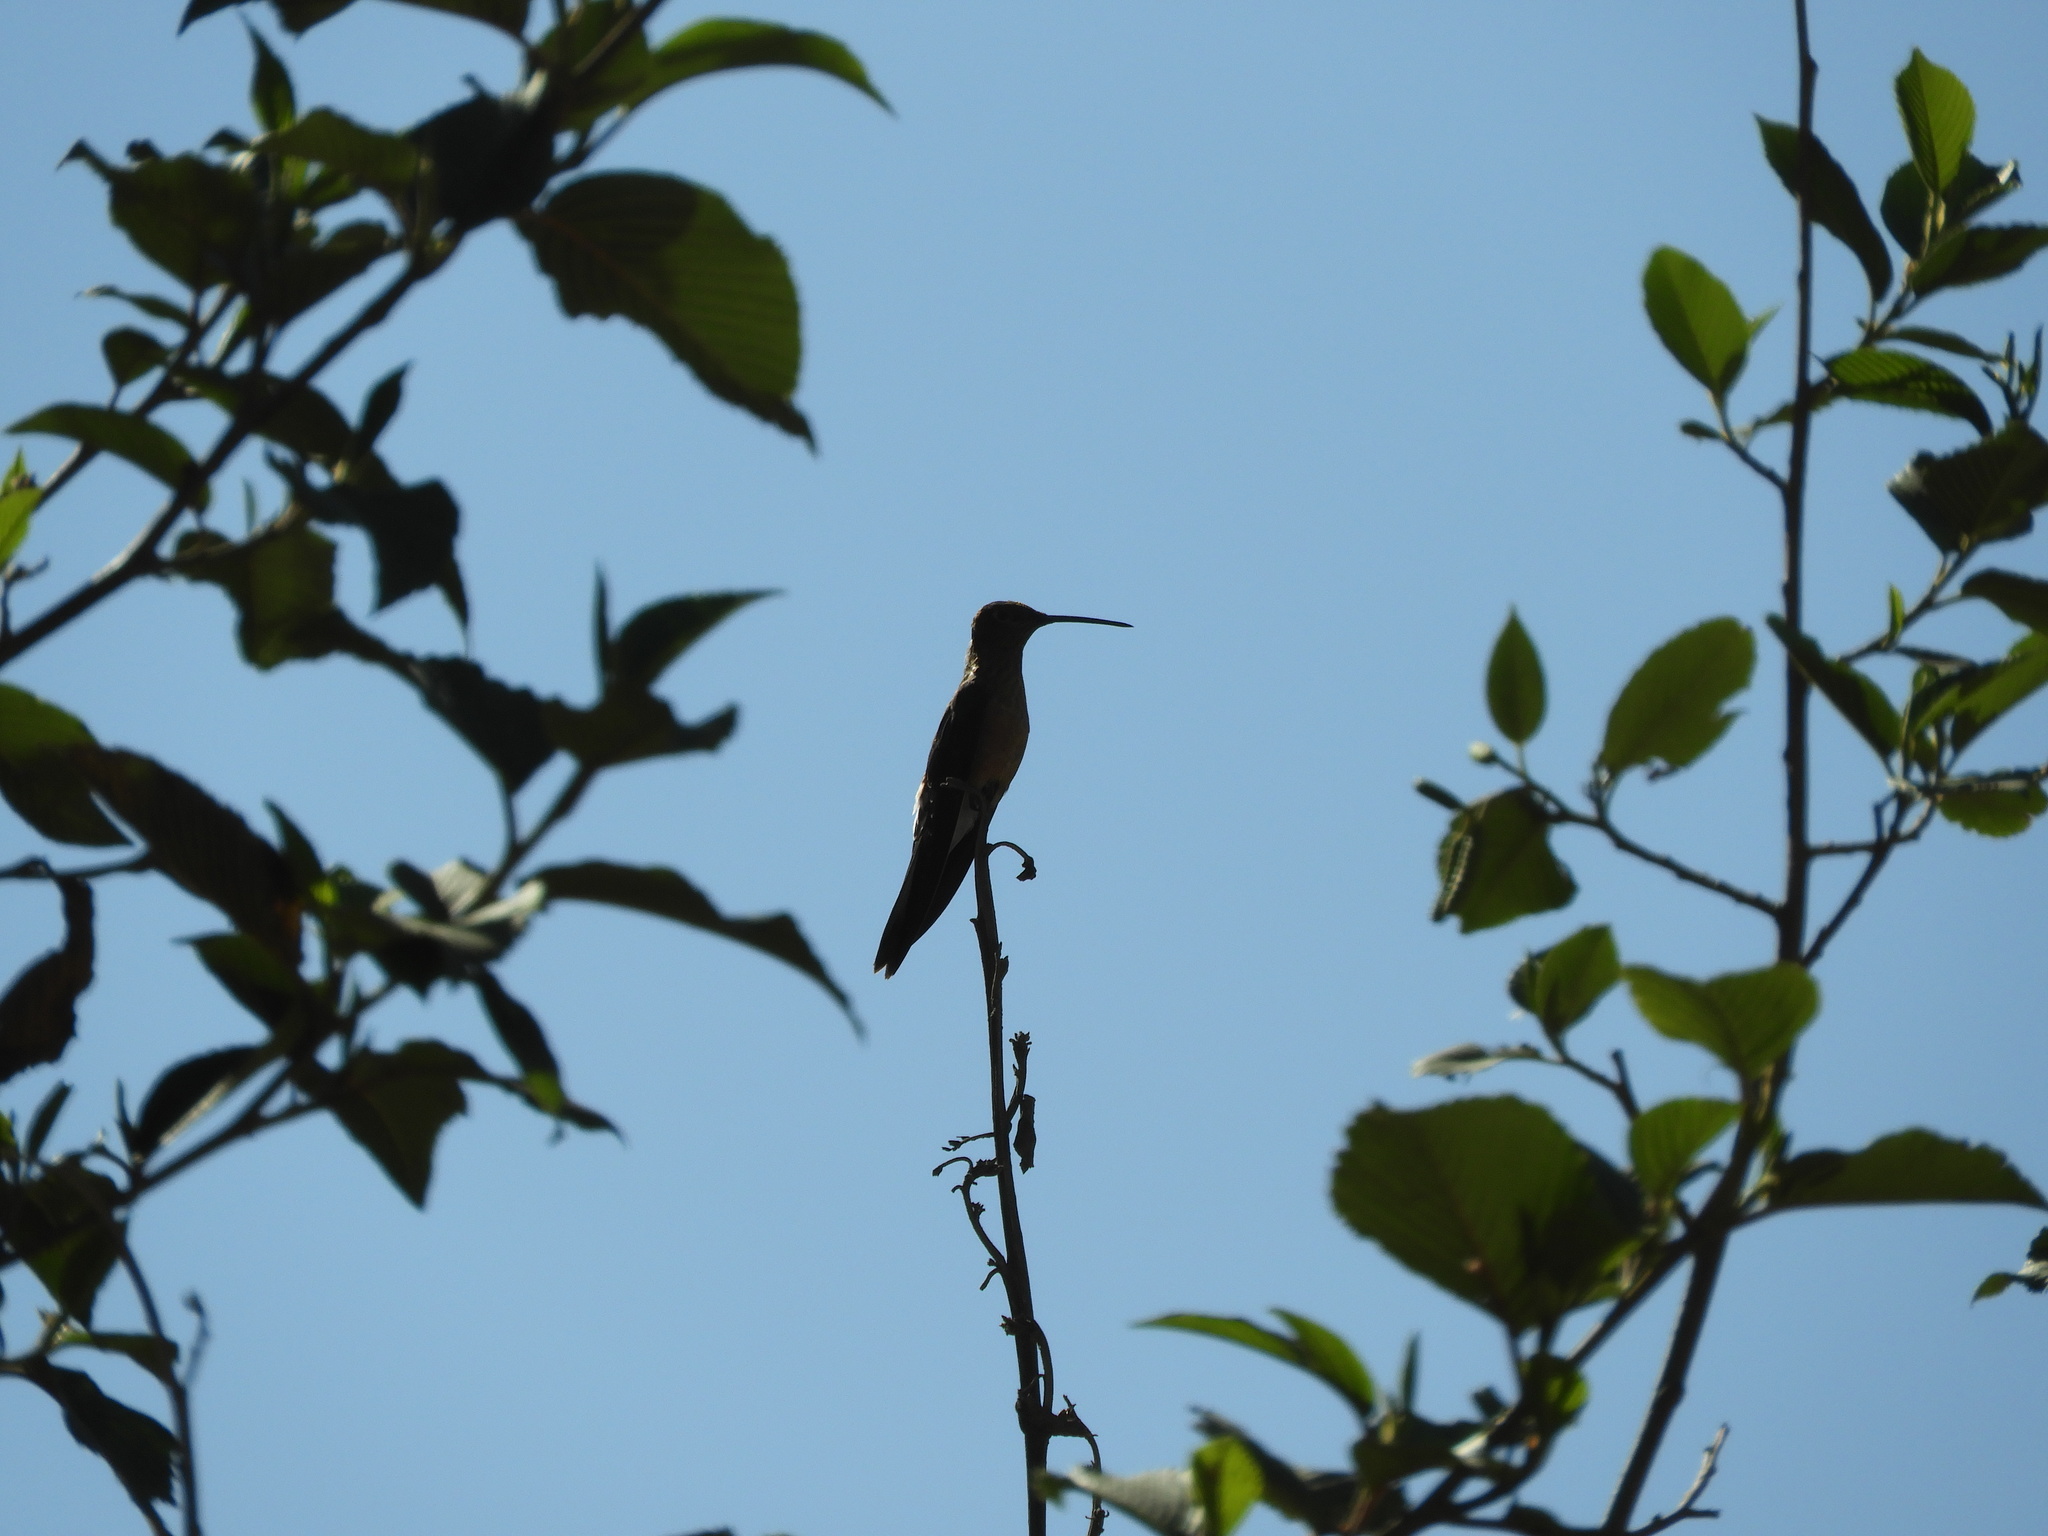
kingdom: Animalia
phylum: Chordata
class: Aves
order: Apodiformes
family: Trochilidae
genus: Patagona
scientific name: Patagona gigas
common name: Giant hummingbird
